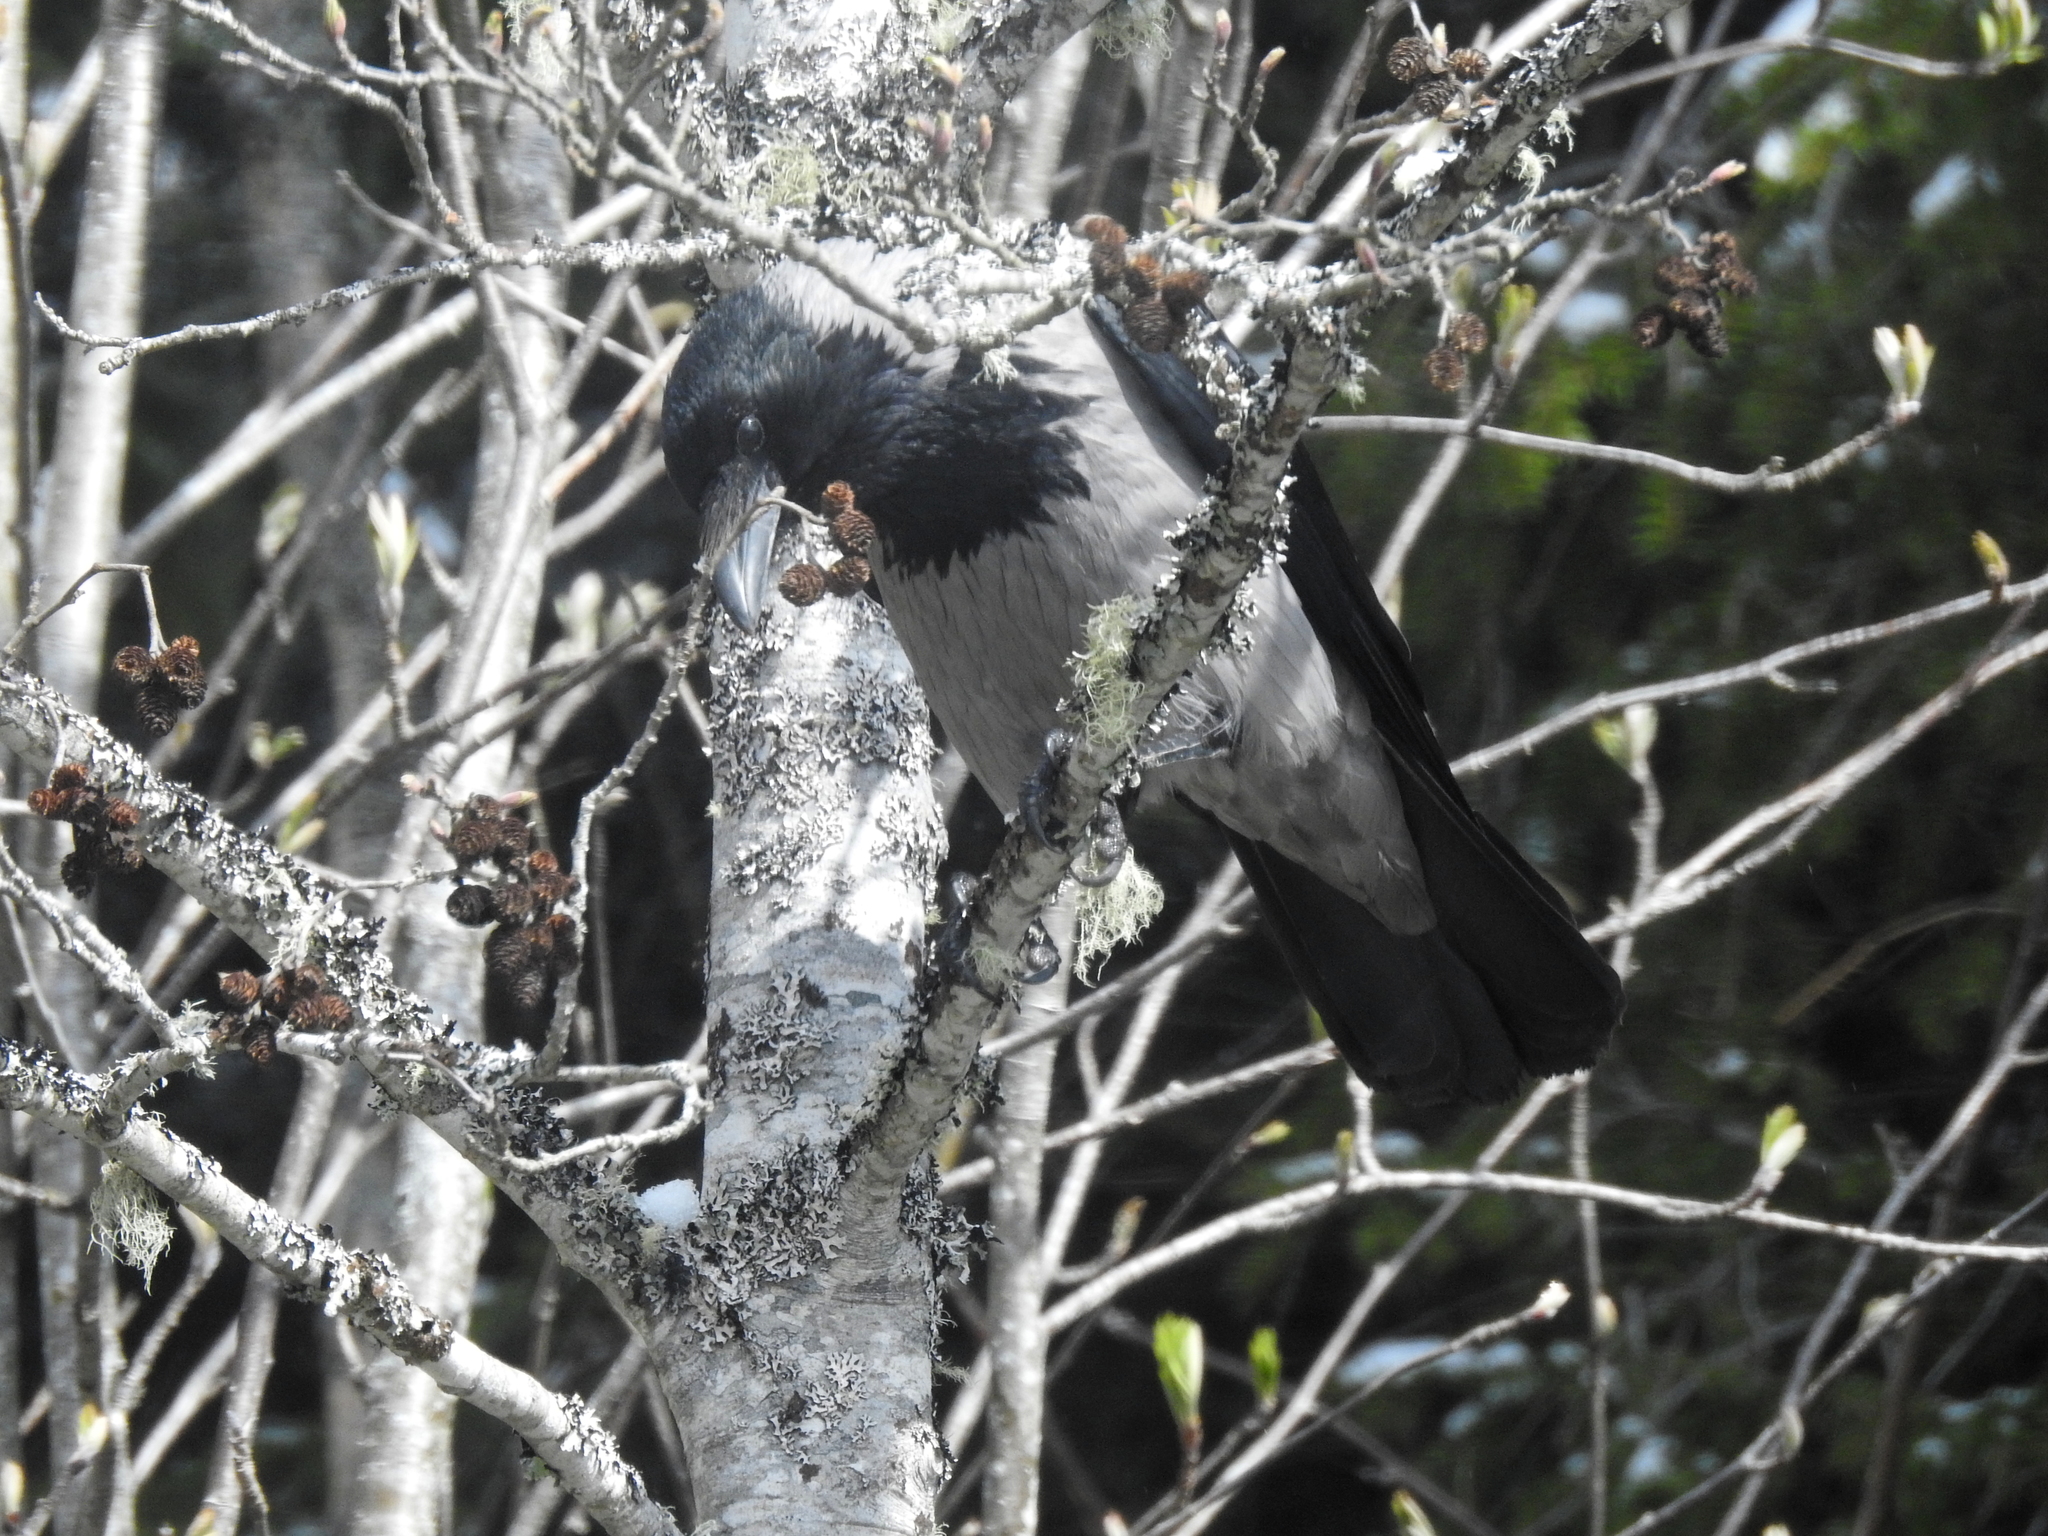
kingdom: Animalia
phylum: Chordata
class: Aves
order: Passeriformes
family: Corvidae
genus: Corvus
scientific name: Corvus cornix
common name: Hooded crow
